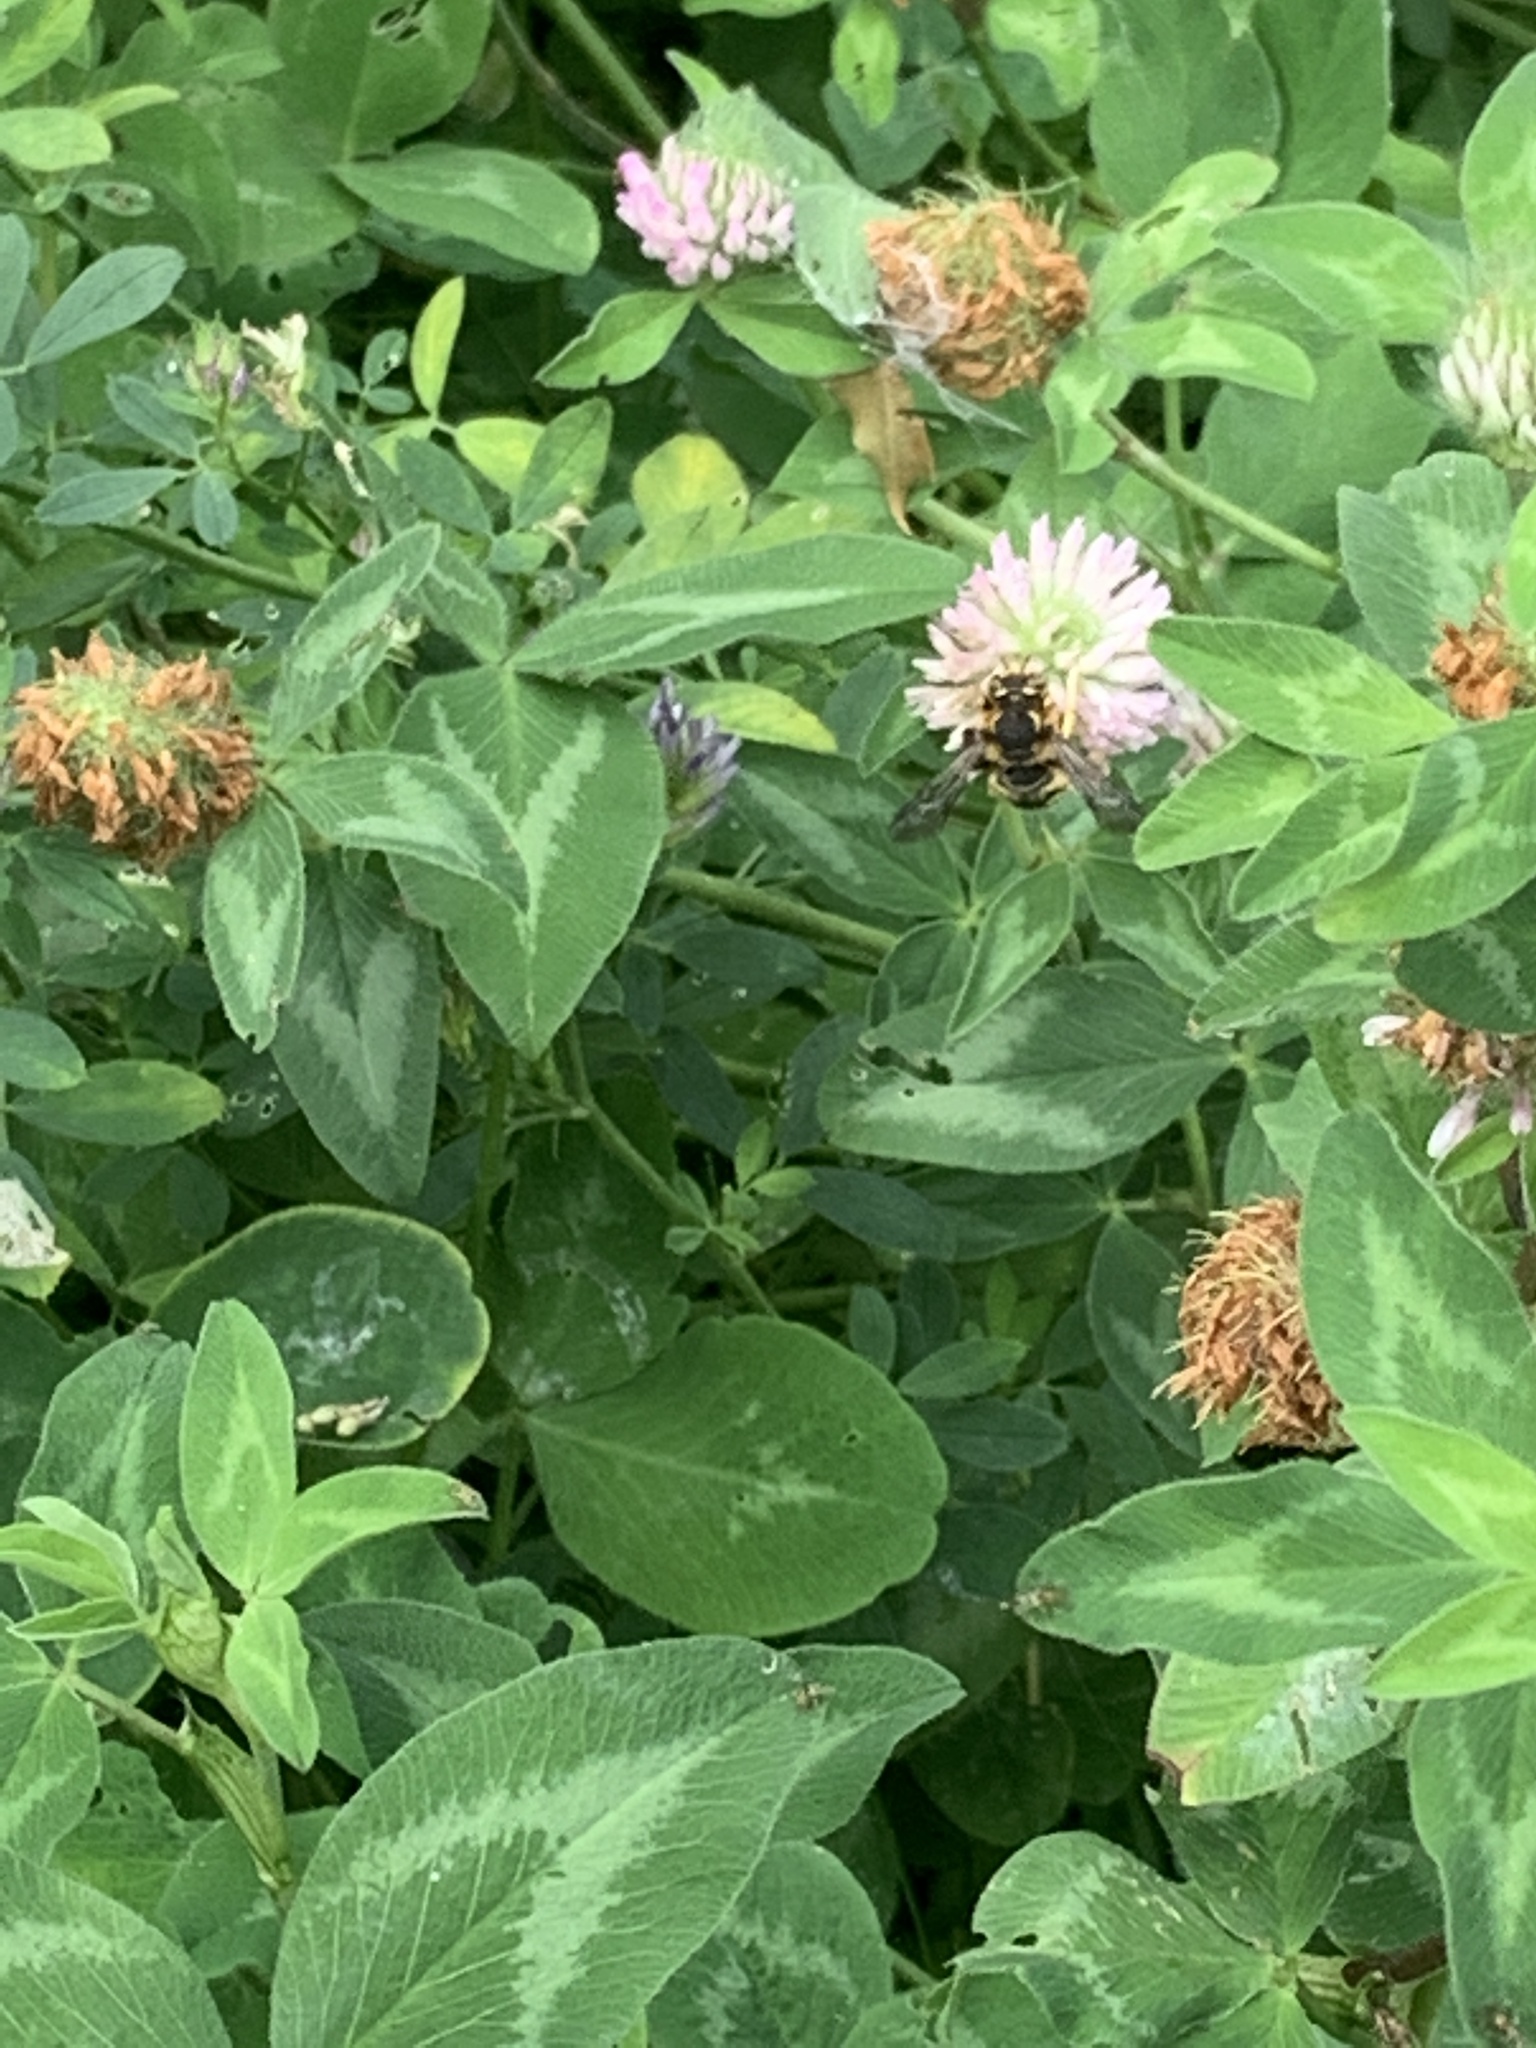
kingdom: Animalia
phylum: Arthropoda
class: Insecta
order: Hymenoptera
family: Megachilidae
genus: Anthidium
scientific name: Anthidium florentinum
